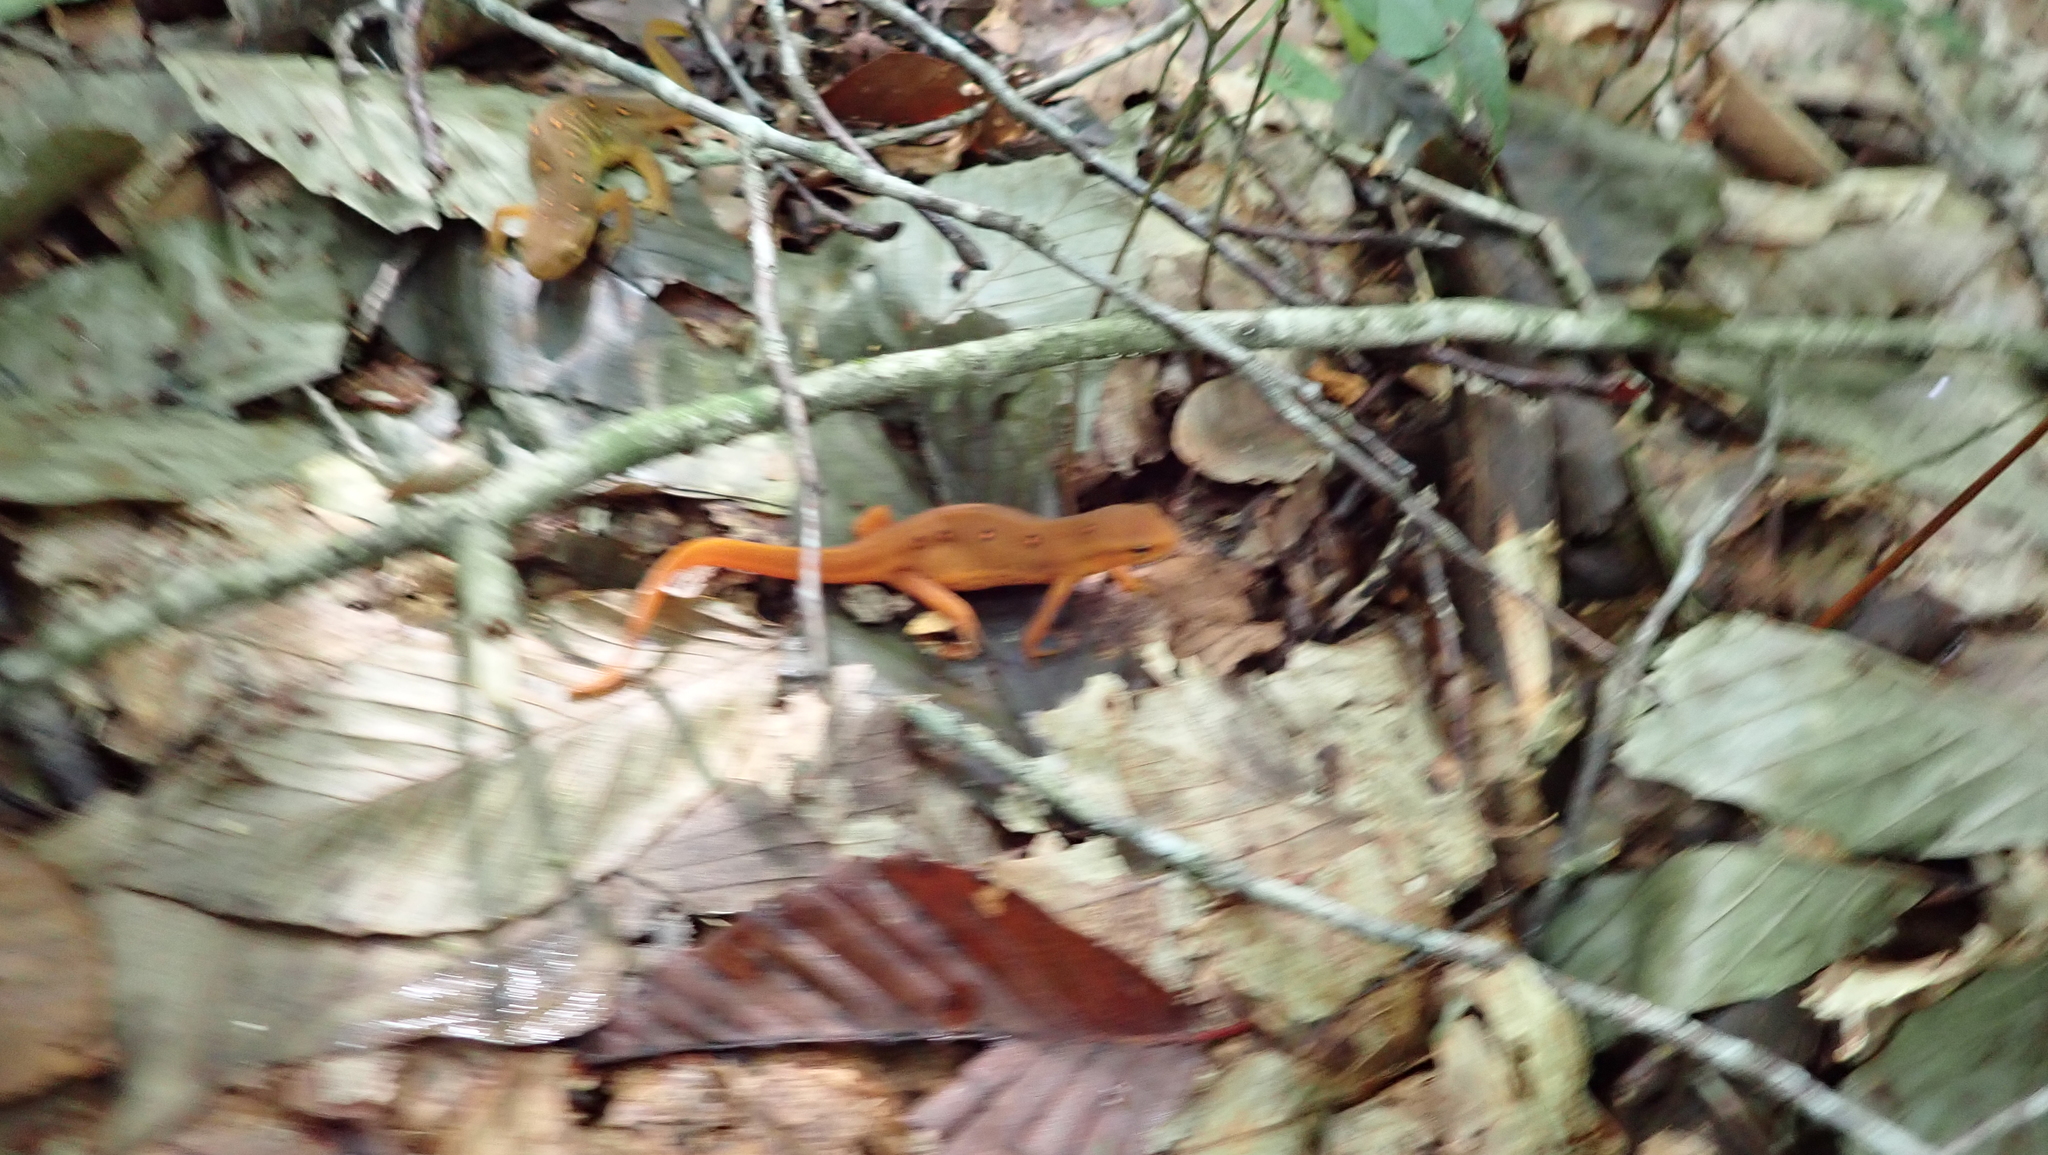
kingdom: Animalia
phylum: Chordata
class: Amphibia
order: Caudata
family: Salamandridae
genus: Notophthalmus
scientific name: Notophthalmus viridescens
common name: Eastern newt
